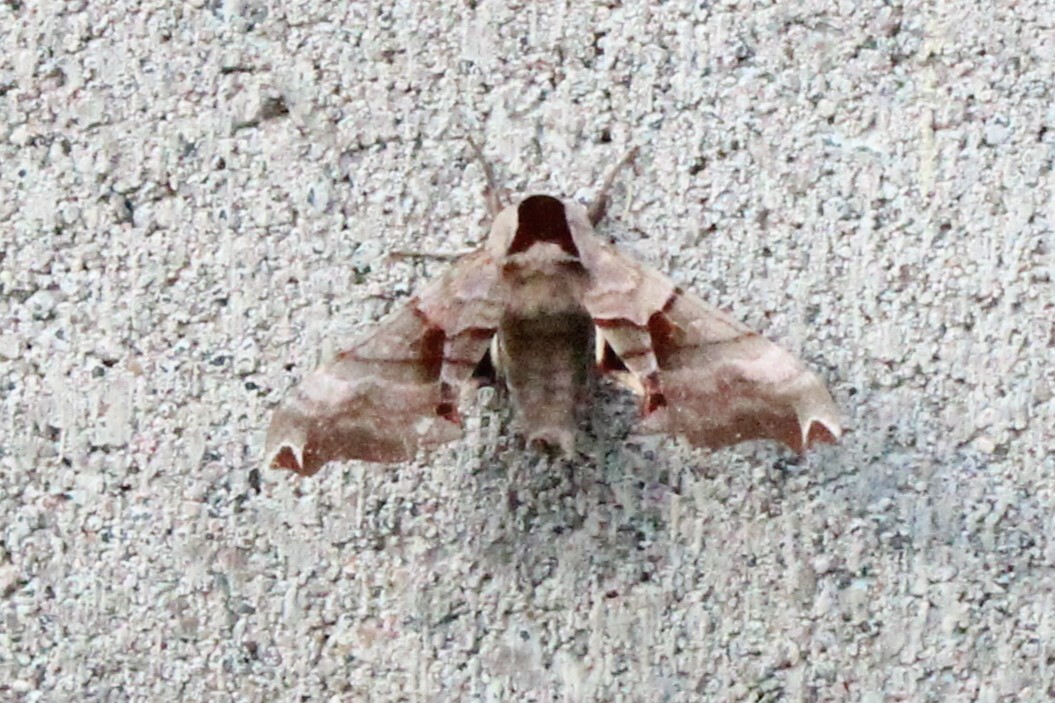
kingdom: Animalia
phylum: Arthropoda
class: Insecta
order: Lepidoptera
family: Sphingidae
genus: Smerinthus
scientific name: Smerinthus jamaicensis
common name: Twin spotted sphinx
